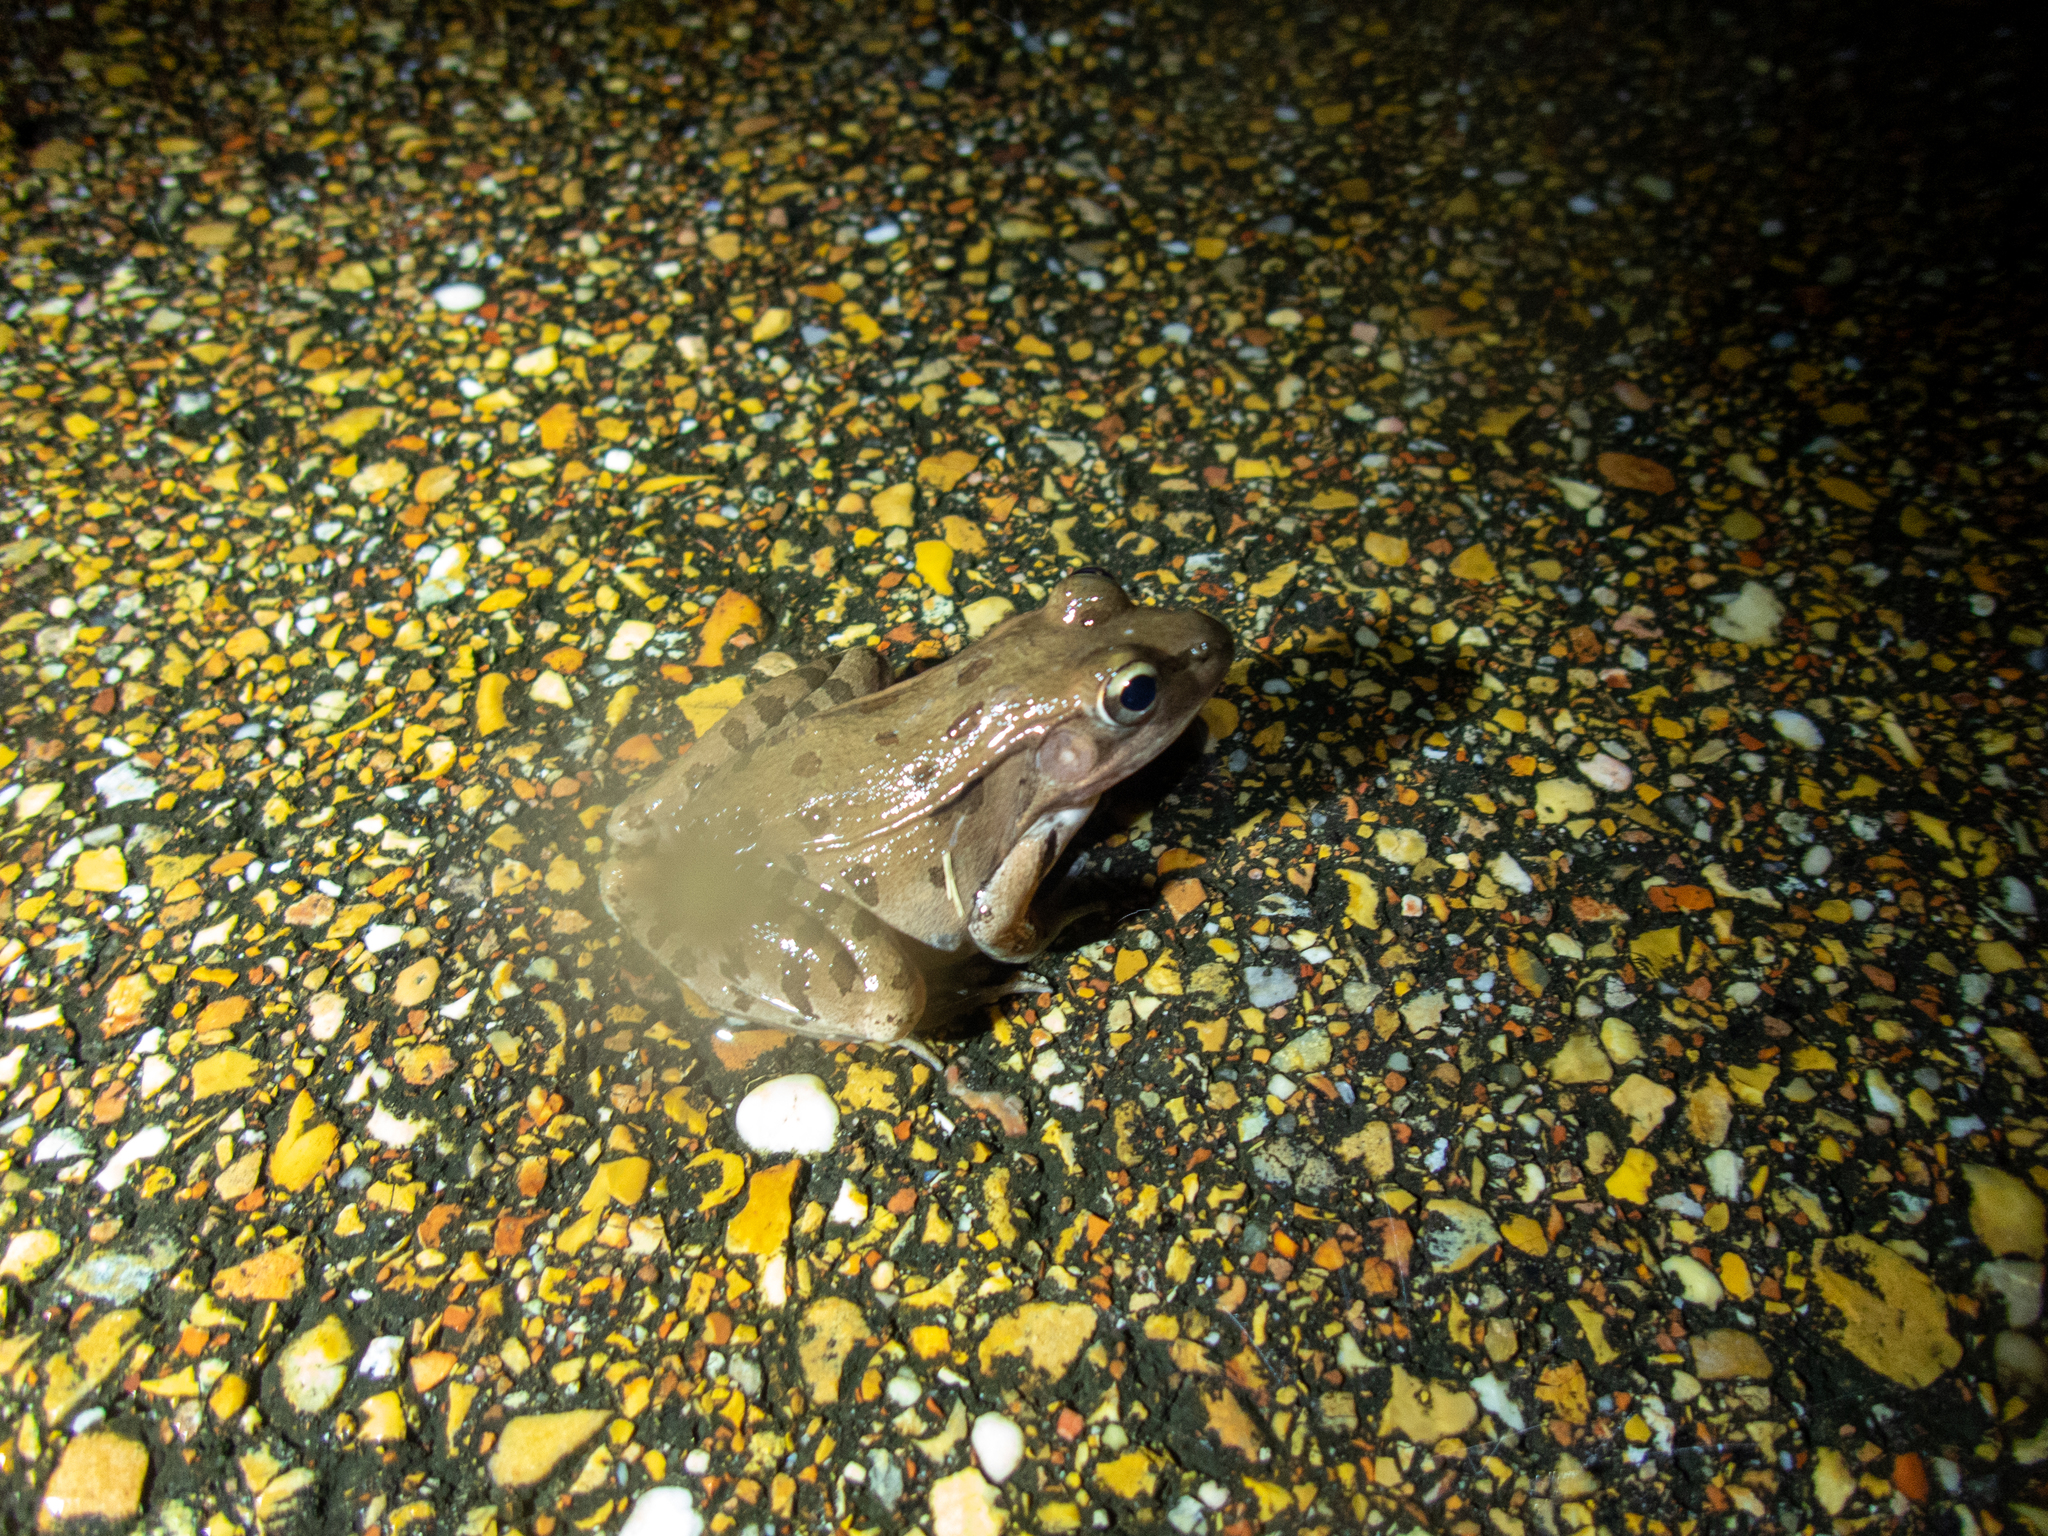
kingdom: Animalia
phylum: Chordata
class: Amphibia
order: Anura
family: Ranidae
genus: Lithobates
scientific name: Lithobates sphenocephalus
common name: Southern leopard frog
